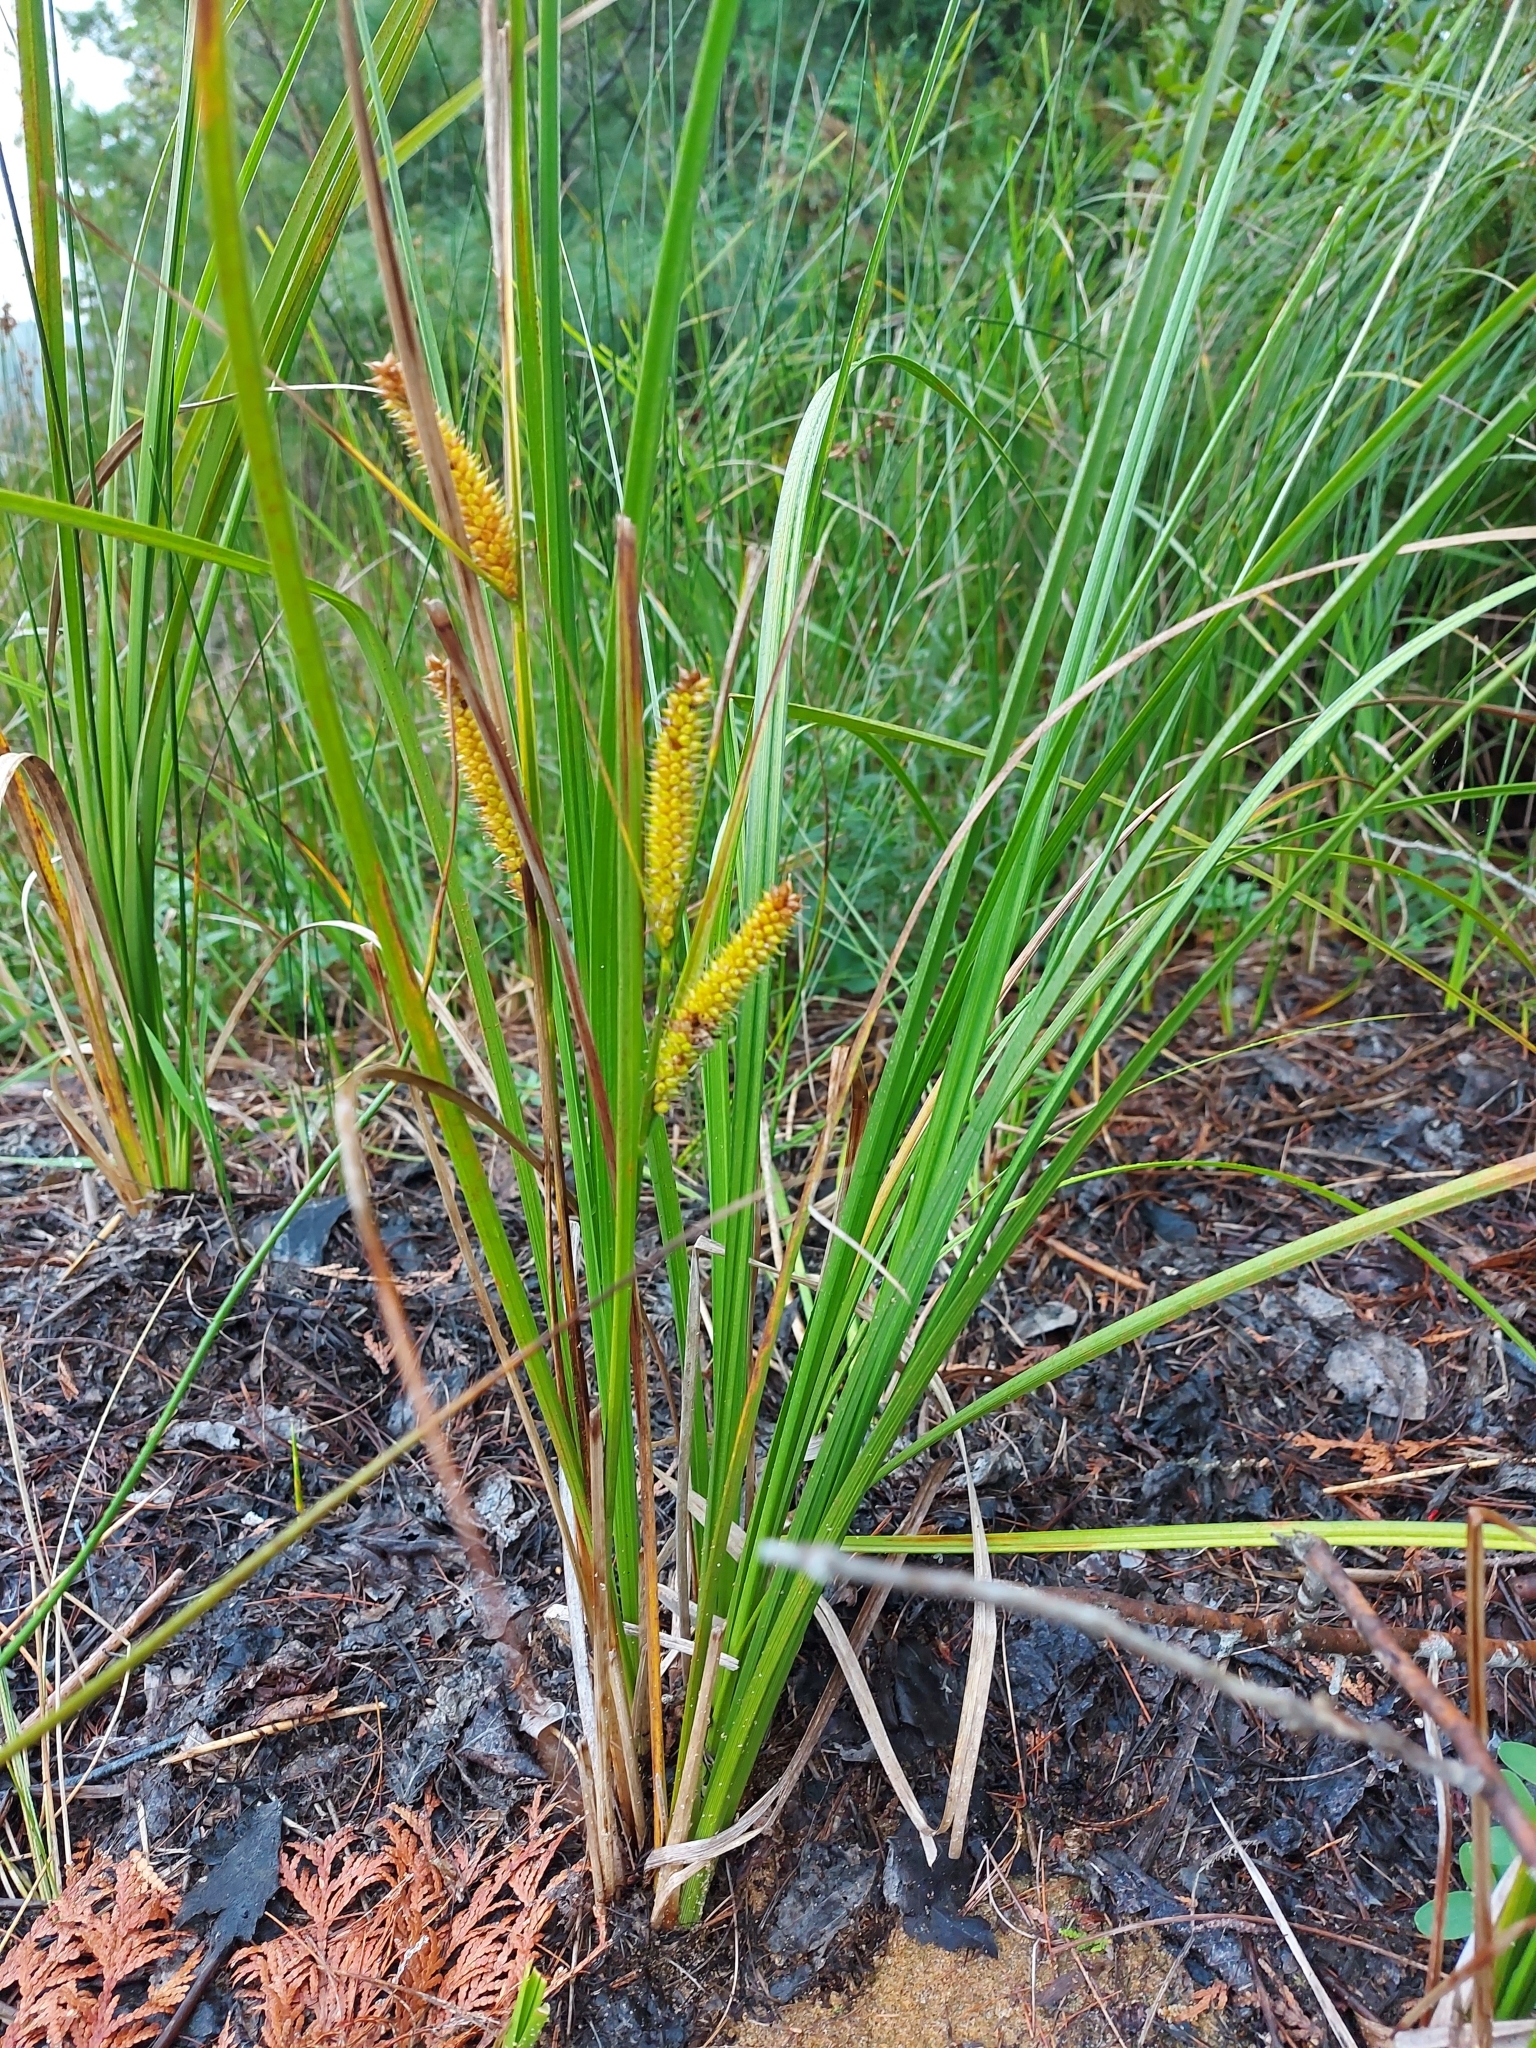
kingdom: Plantae
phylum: Tracheophyta
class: Liliopsida
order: Poales
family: Cyperaceae
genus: Carex
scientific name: Carex utriculata
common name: Beaked sedge
